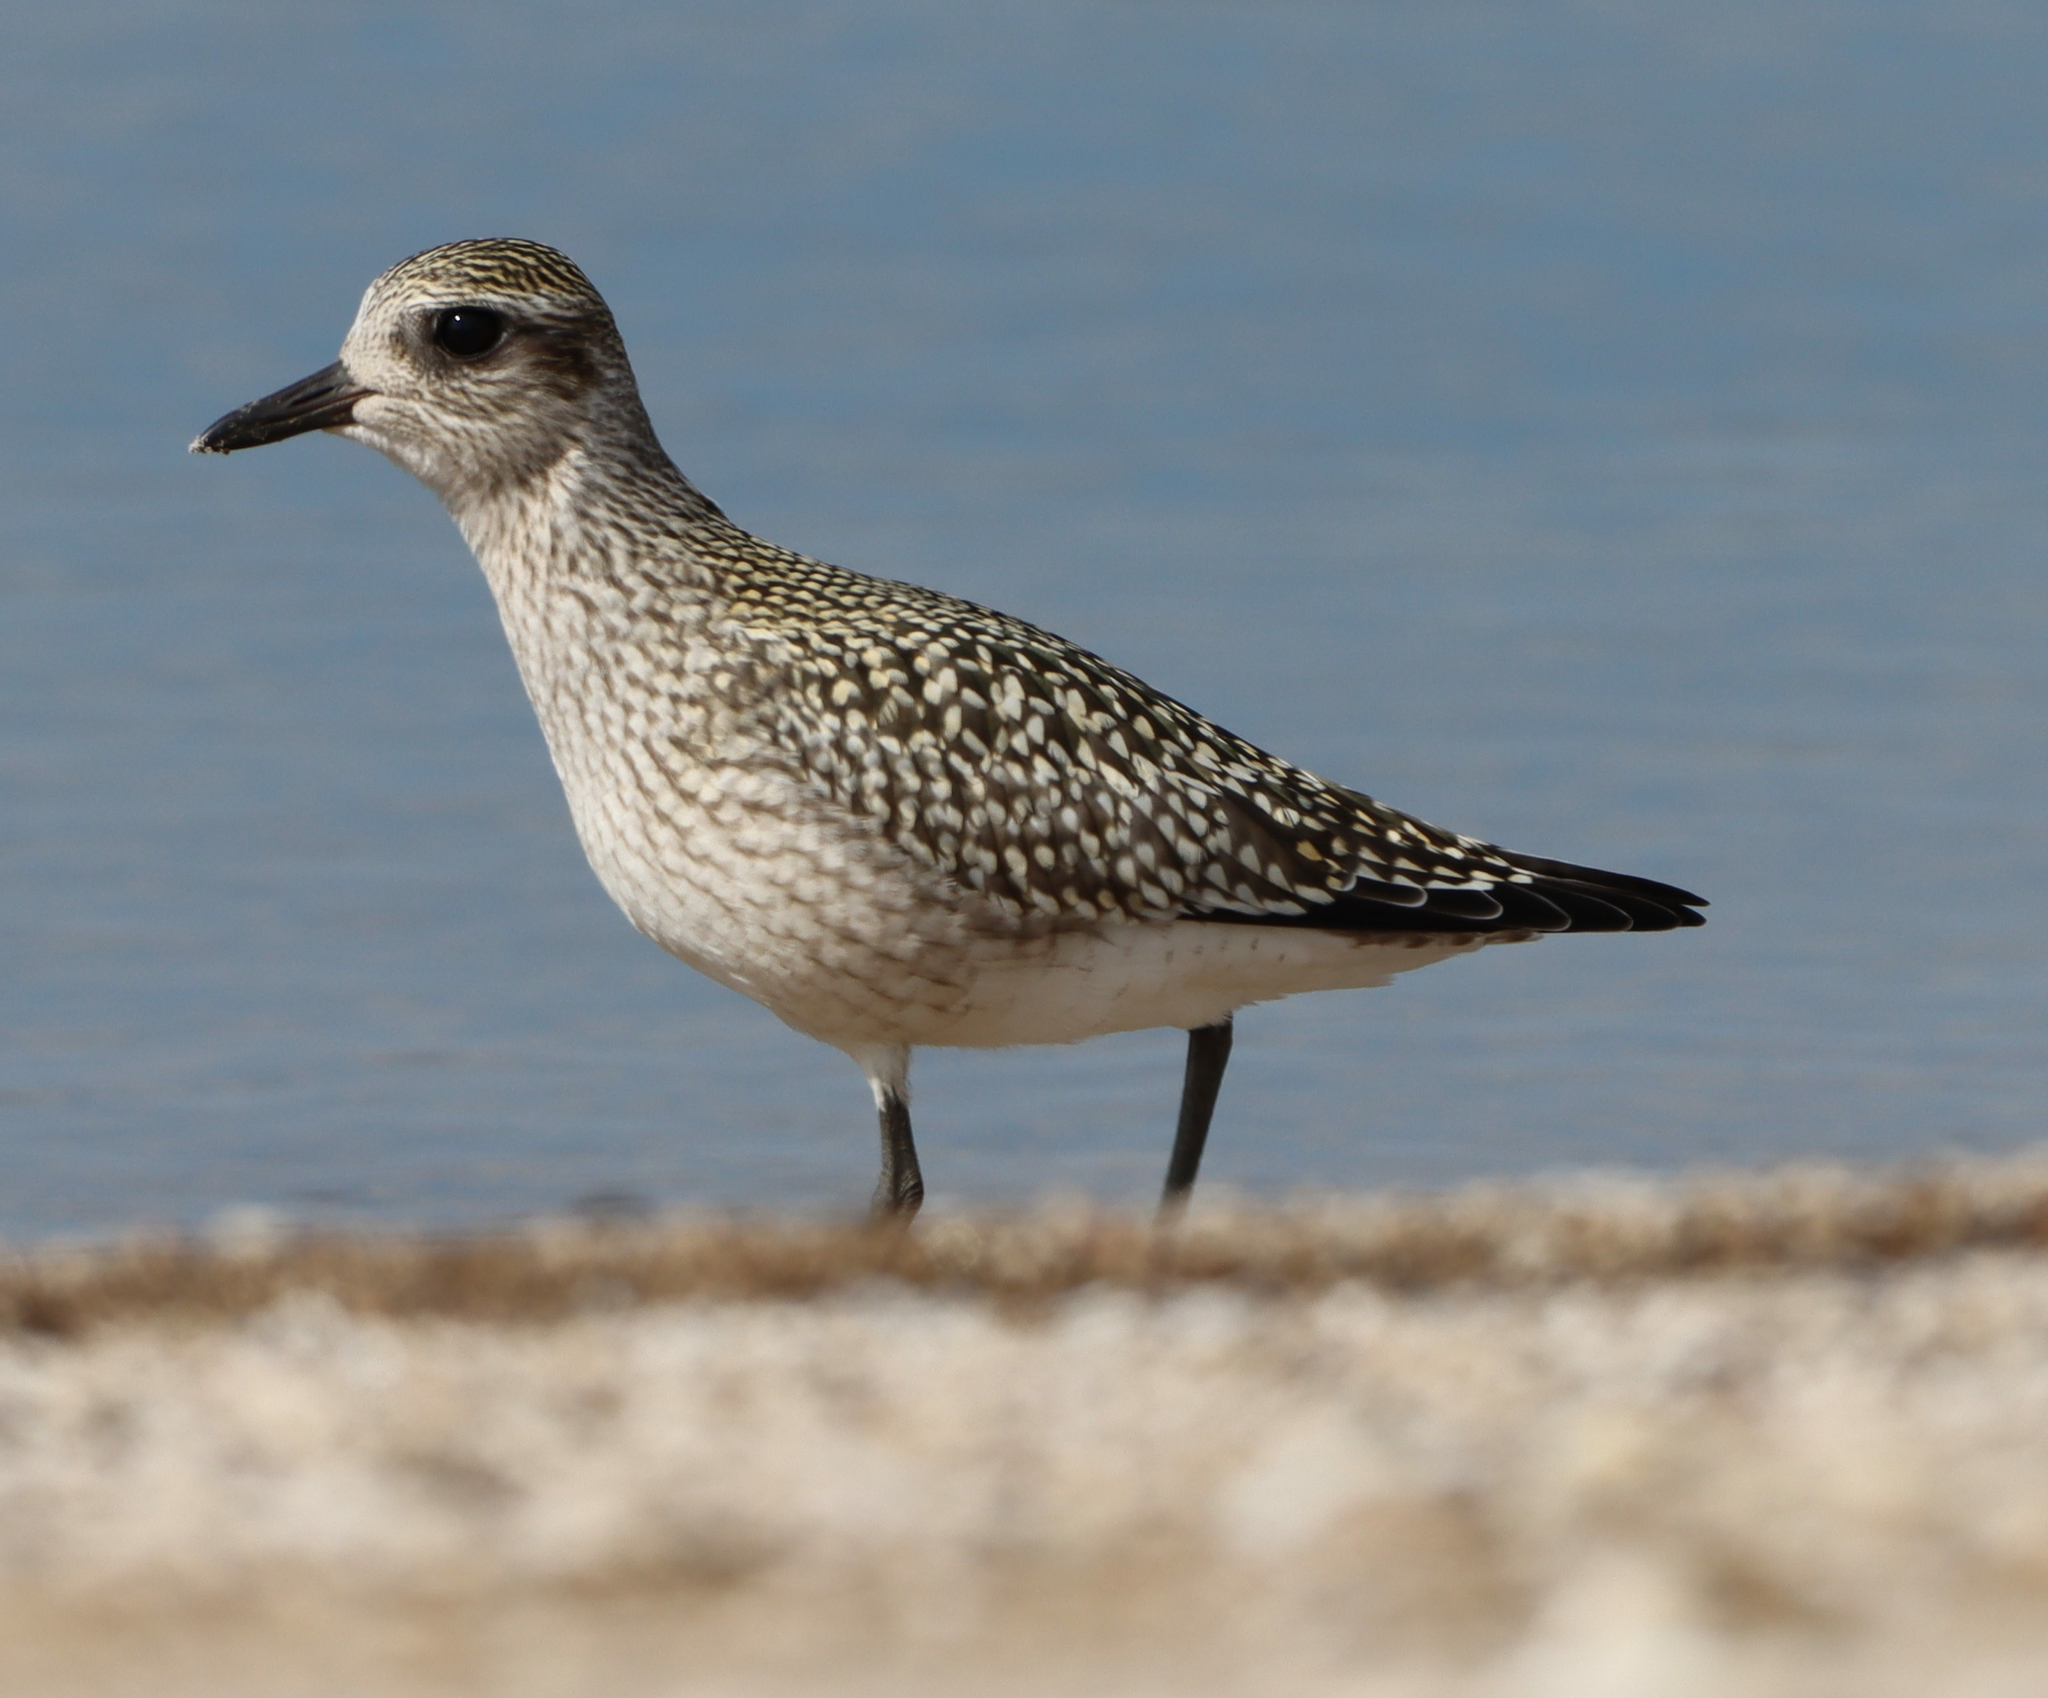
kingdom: Animalia
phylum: Chordata
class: Aves
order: Charadriiformes
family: Charadriidae
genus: Pluvialis
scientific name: Pluvialis squatarola
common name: Grey plover
